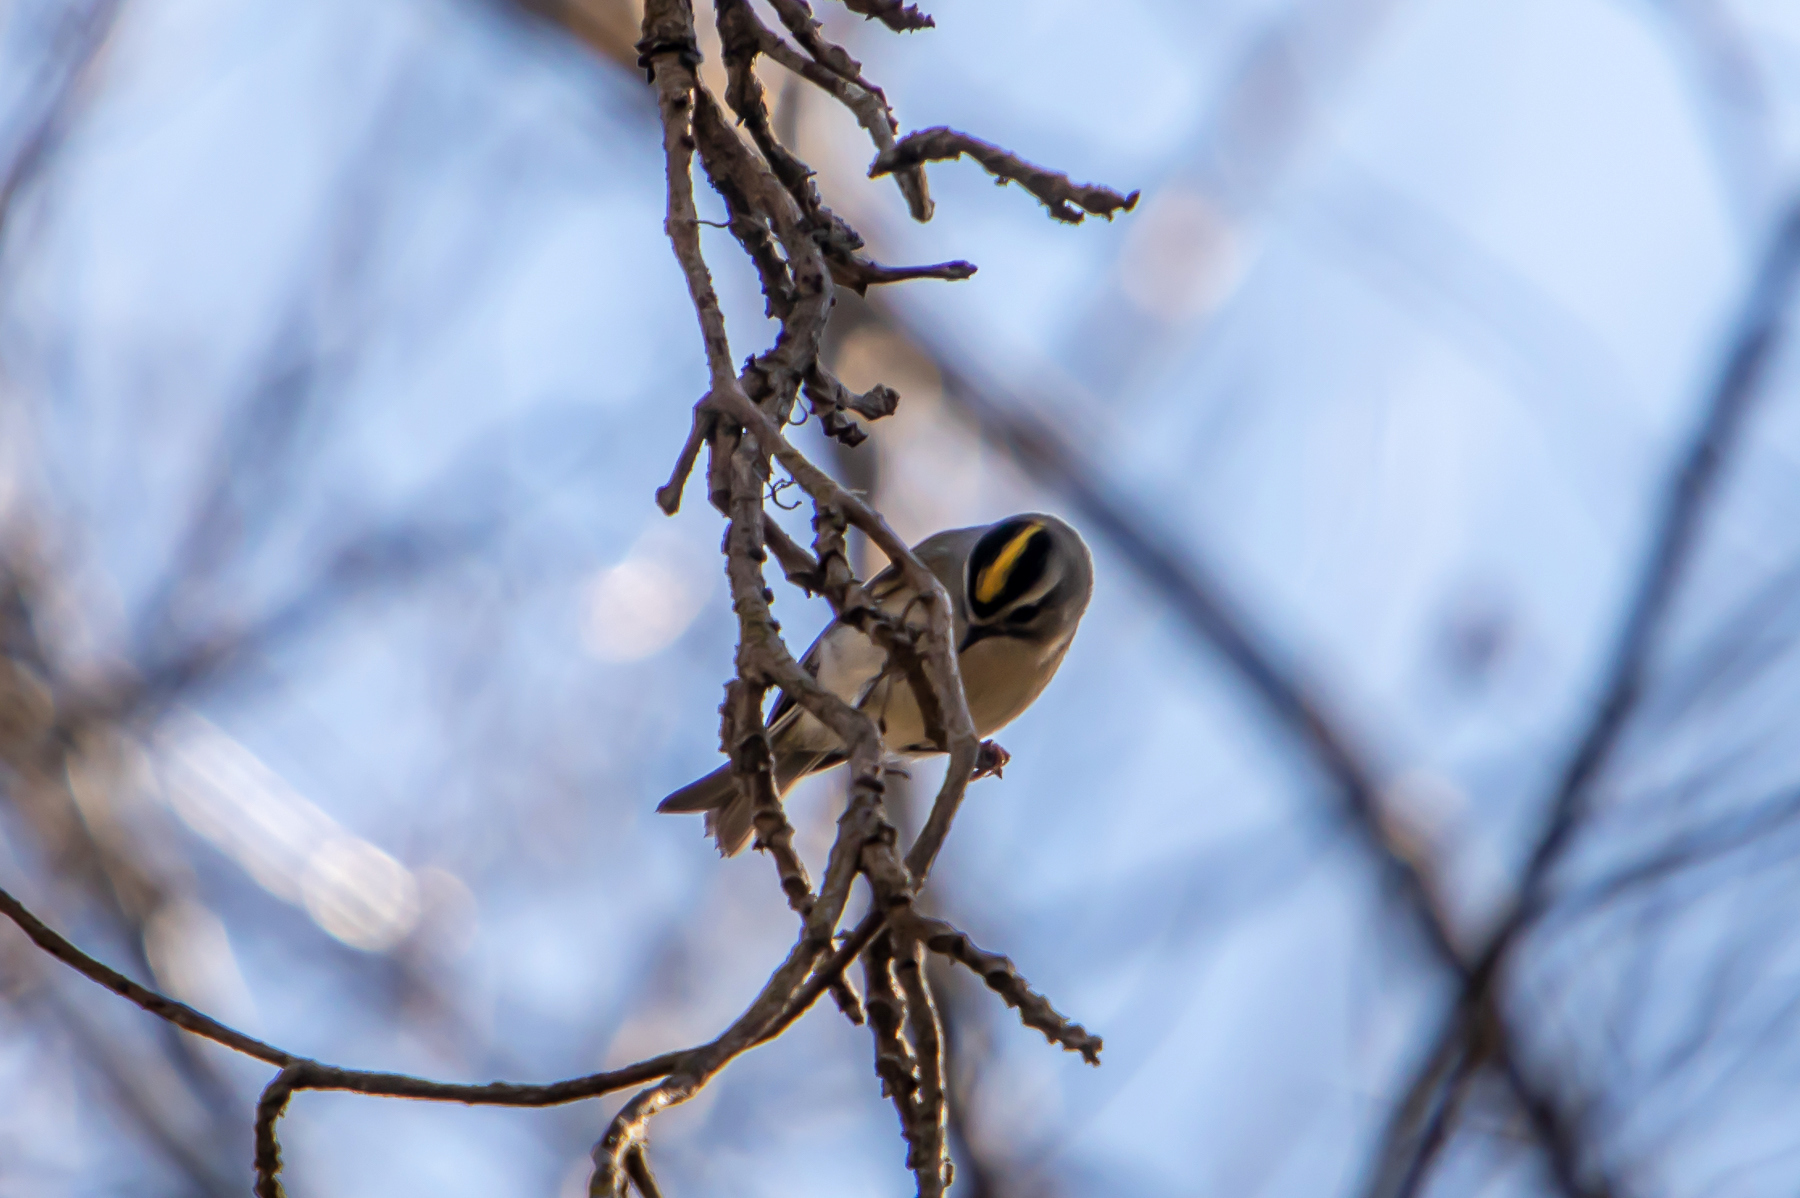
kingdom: Animalia
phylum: Chordata
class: Aves
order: Passeriformes
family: Regulidae
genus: Regulus
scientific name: Regulus satrapa
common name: Golden-crowned kinglet
